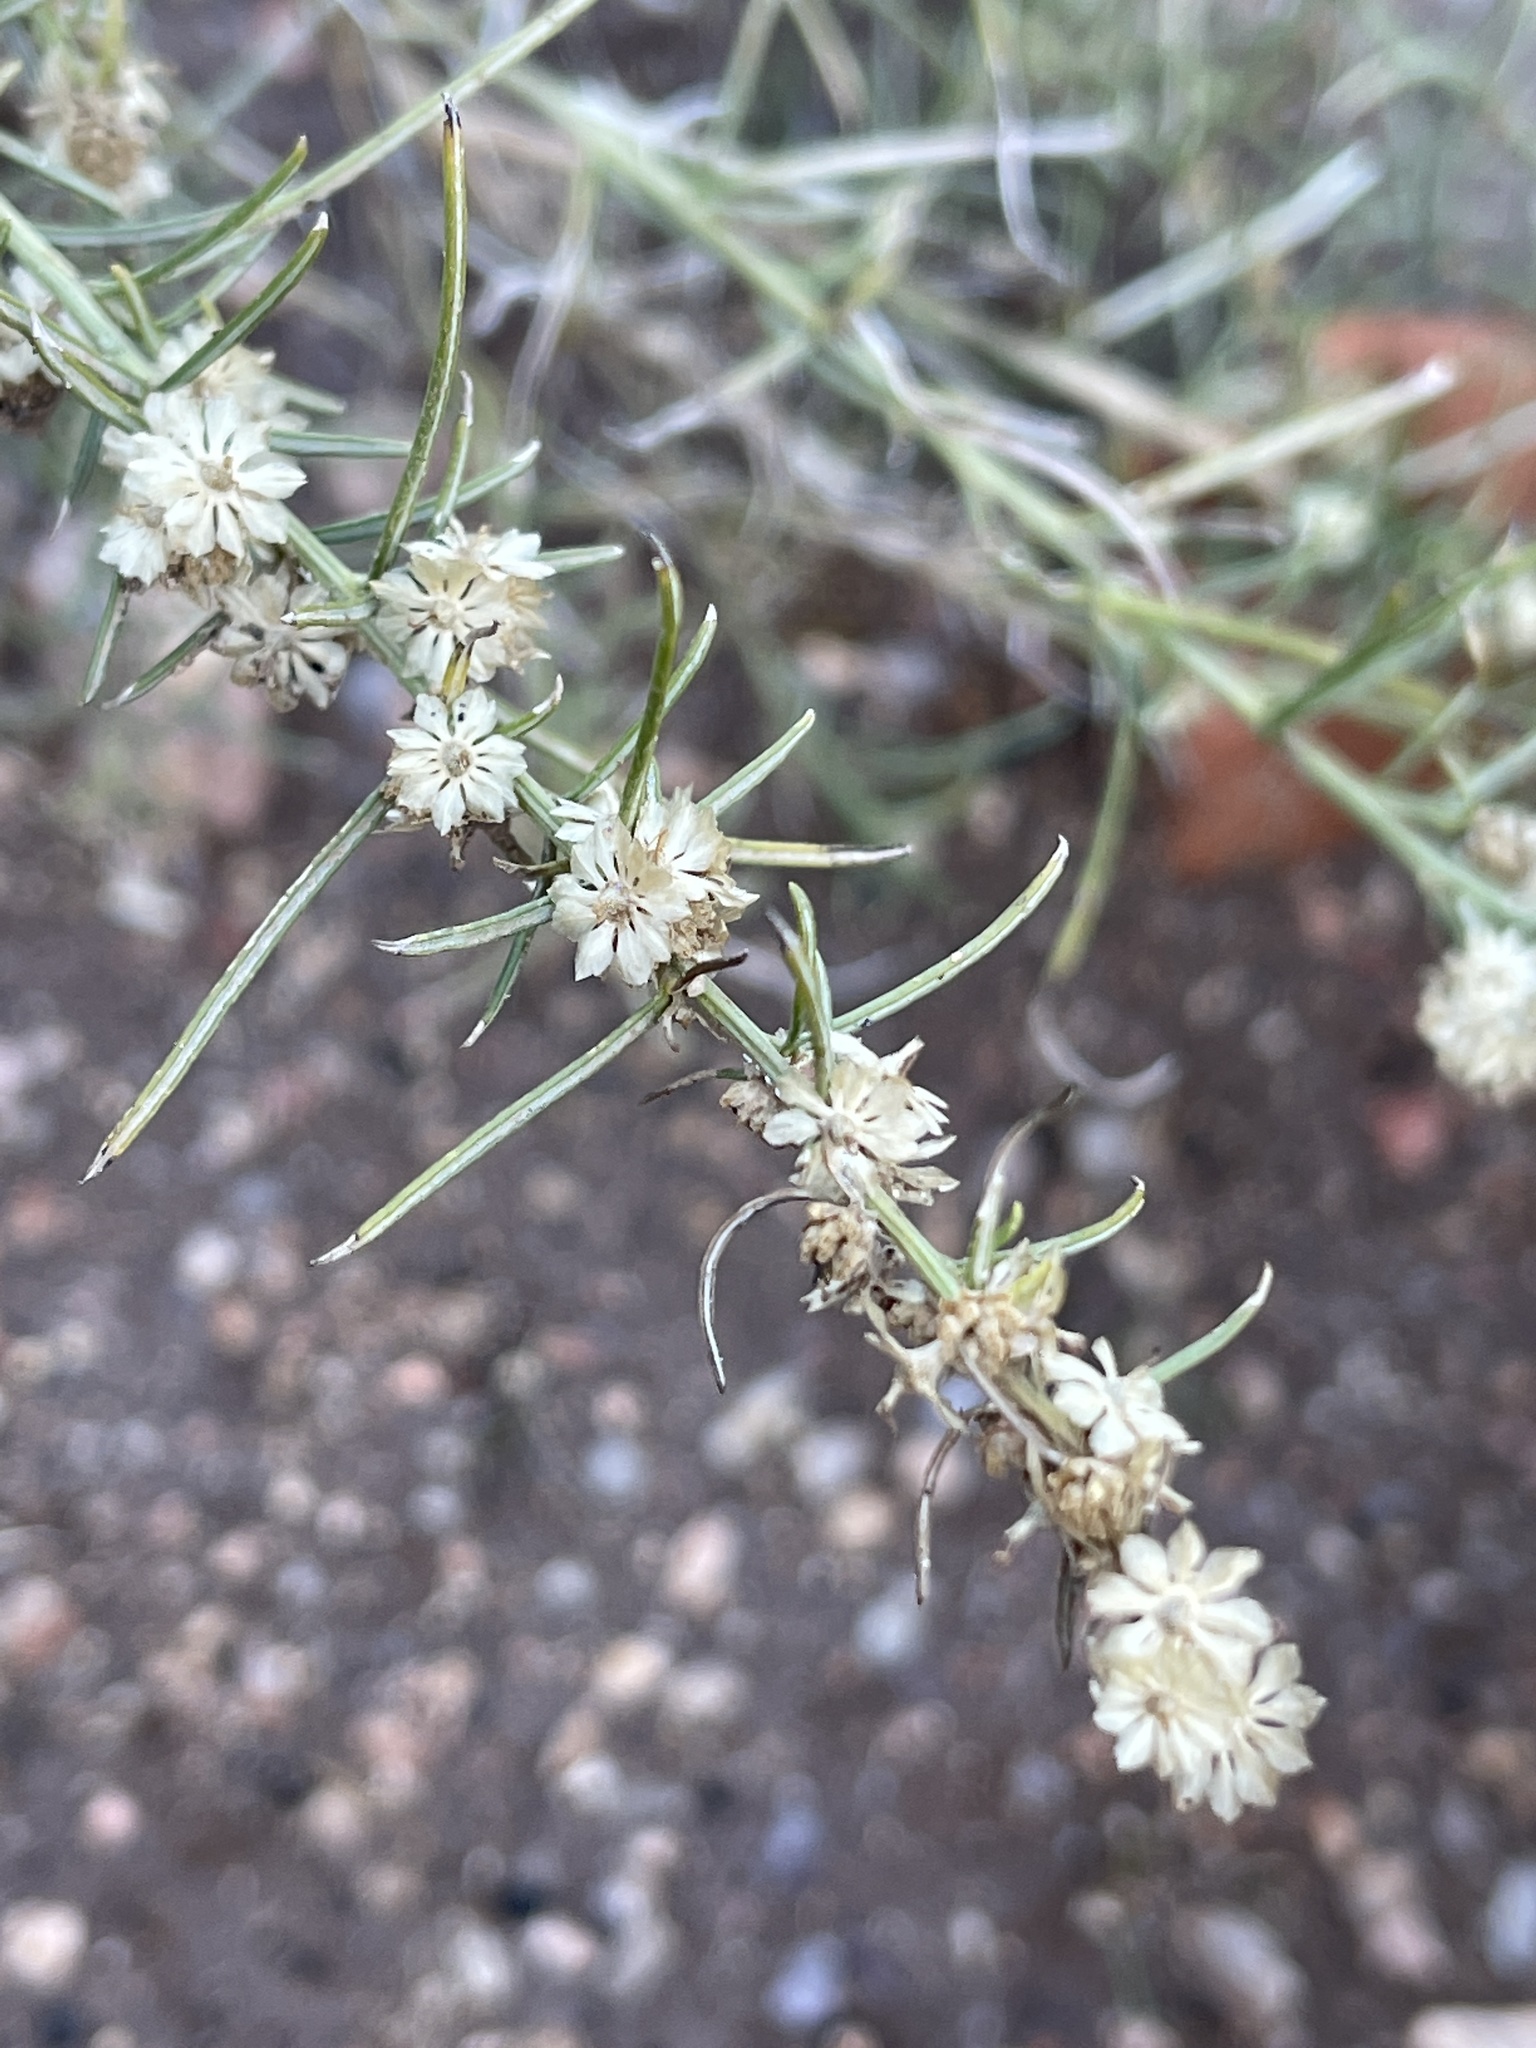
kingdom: Plantae
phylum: Tracheophyta
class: Magnoliopsida
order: Asterales
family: Asteraceae
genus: Ambrosia
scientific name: Ambrosia monogyra
